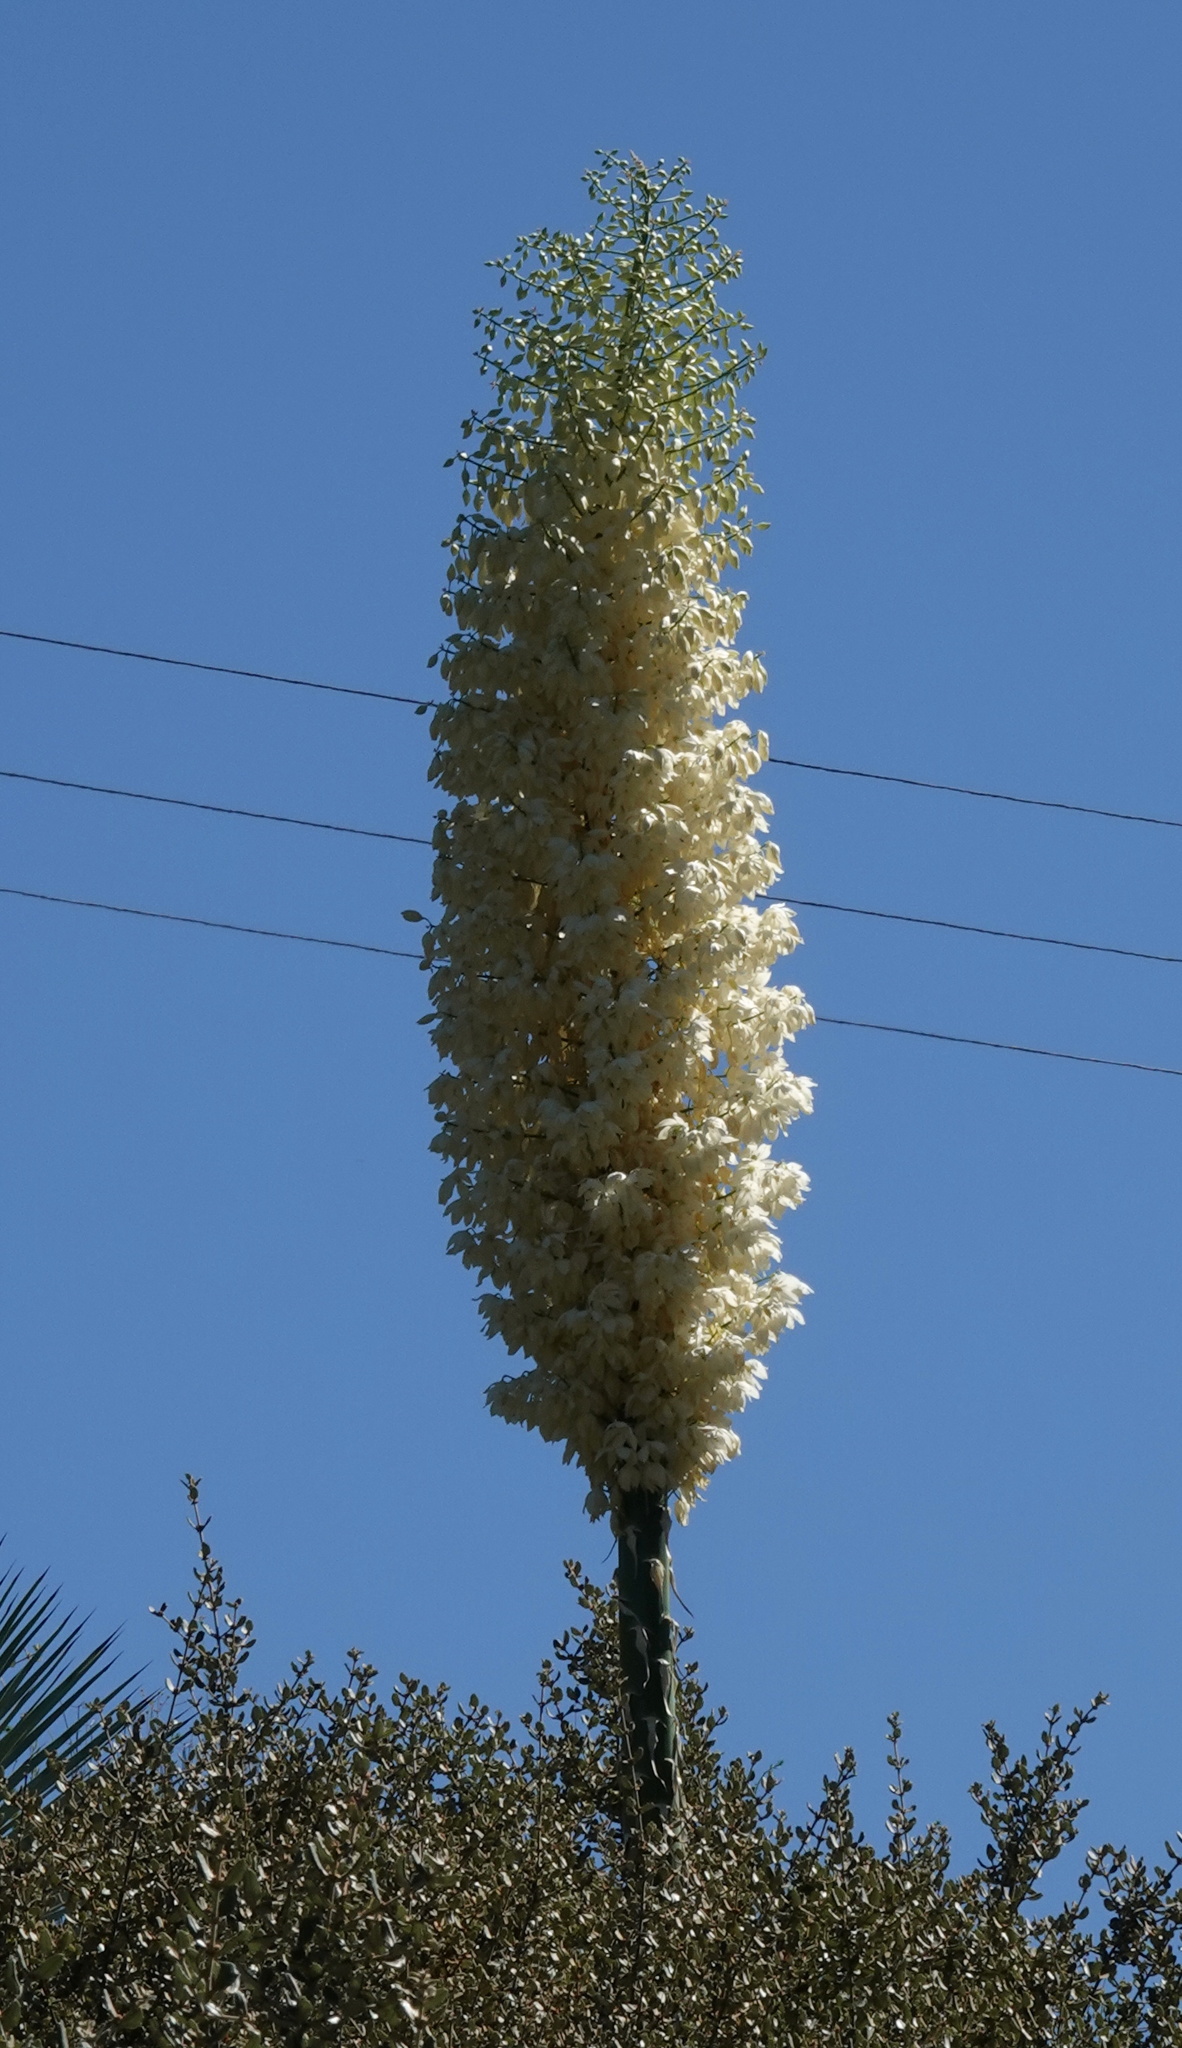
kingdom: Plantae
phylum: Tracheophyta
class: Liliopsida
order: Asparagales
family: Asparagaceae
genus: Hesperoyucca
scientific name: Hesperoyucca whipplei
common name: Our lord's-candle
